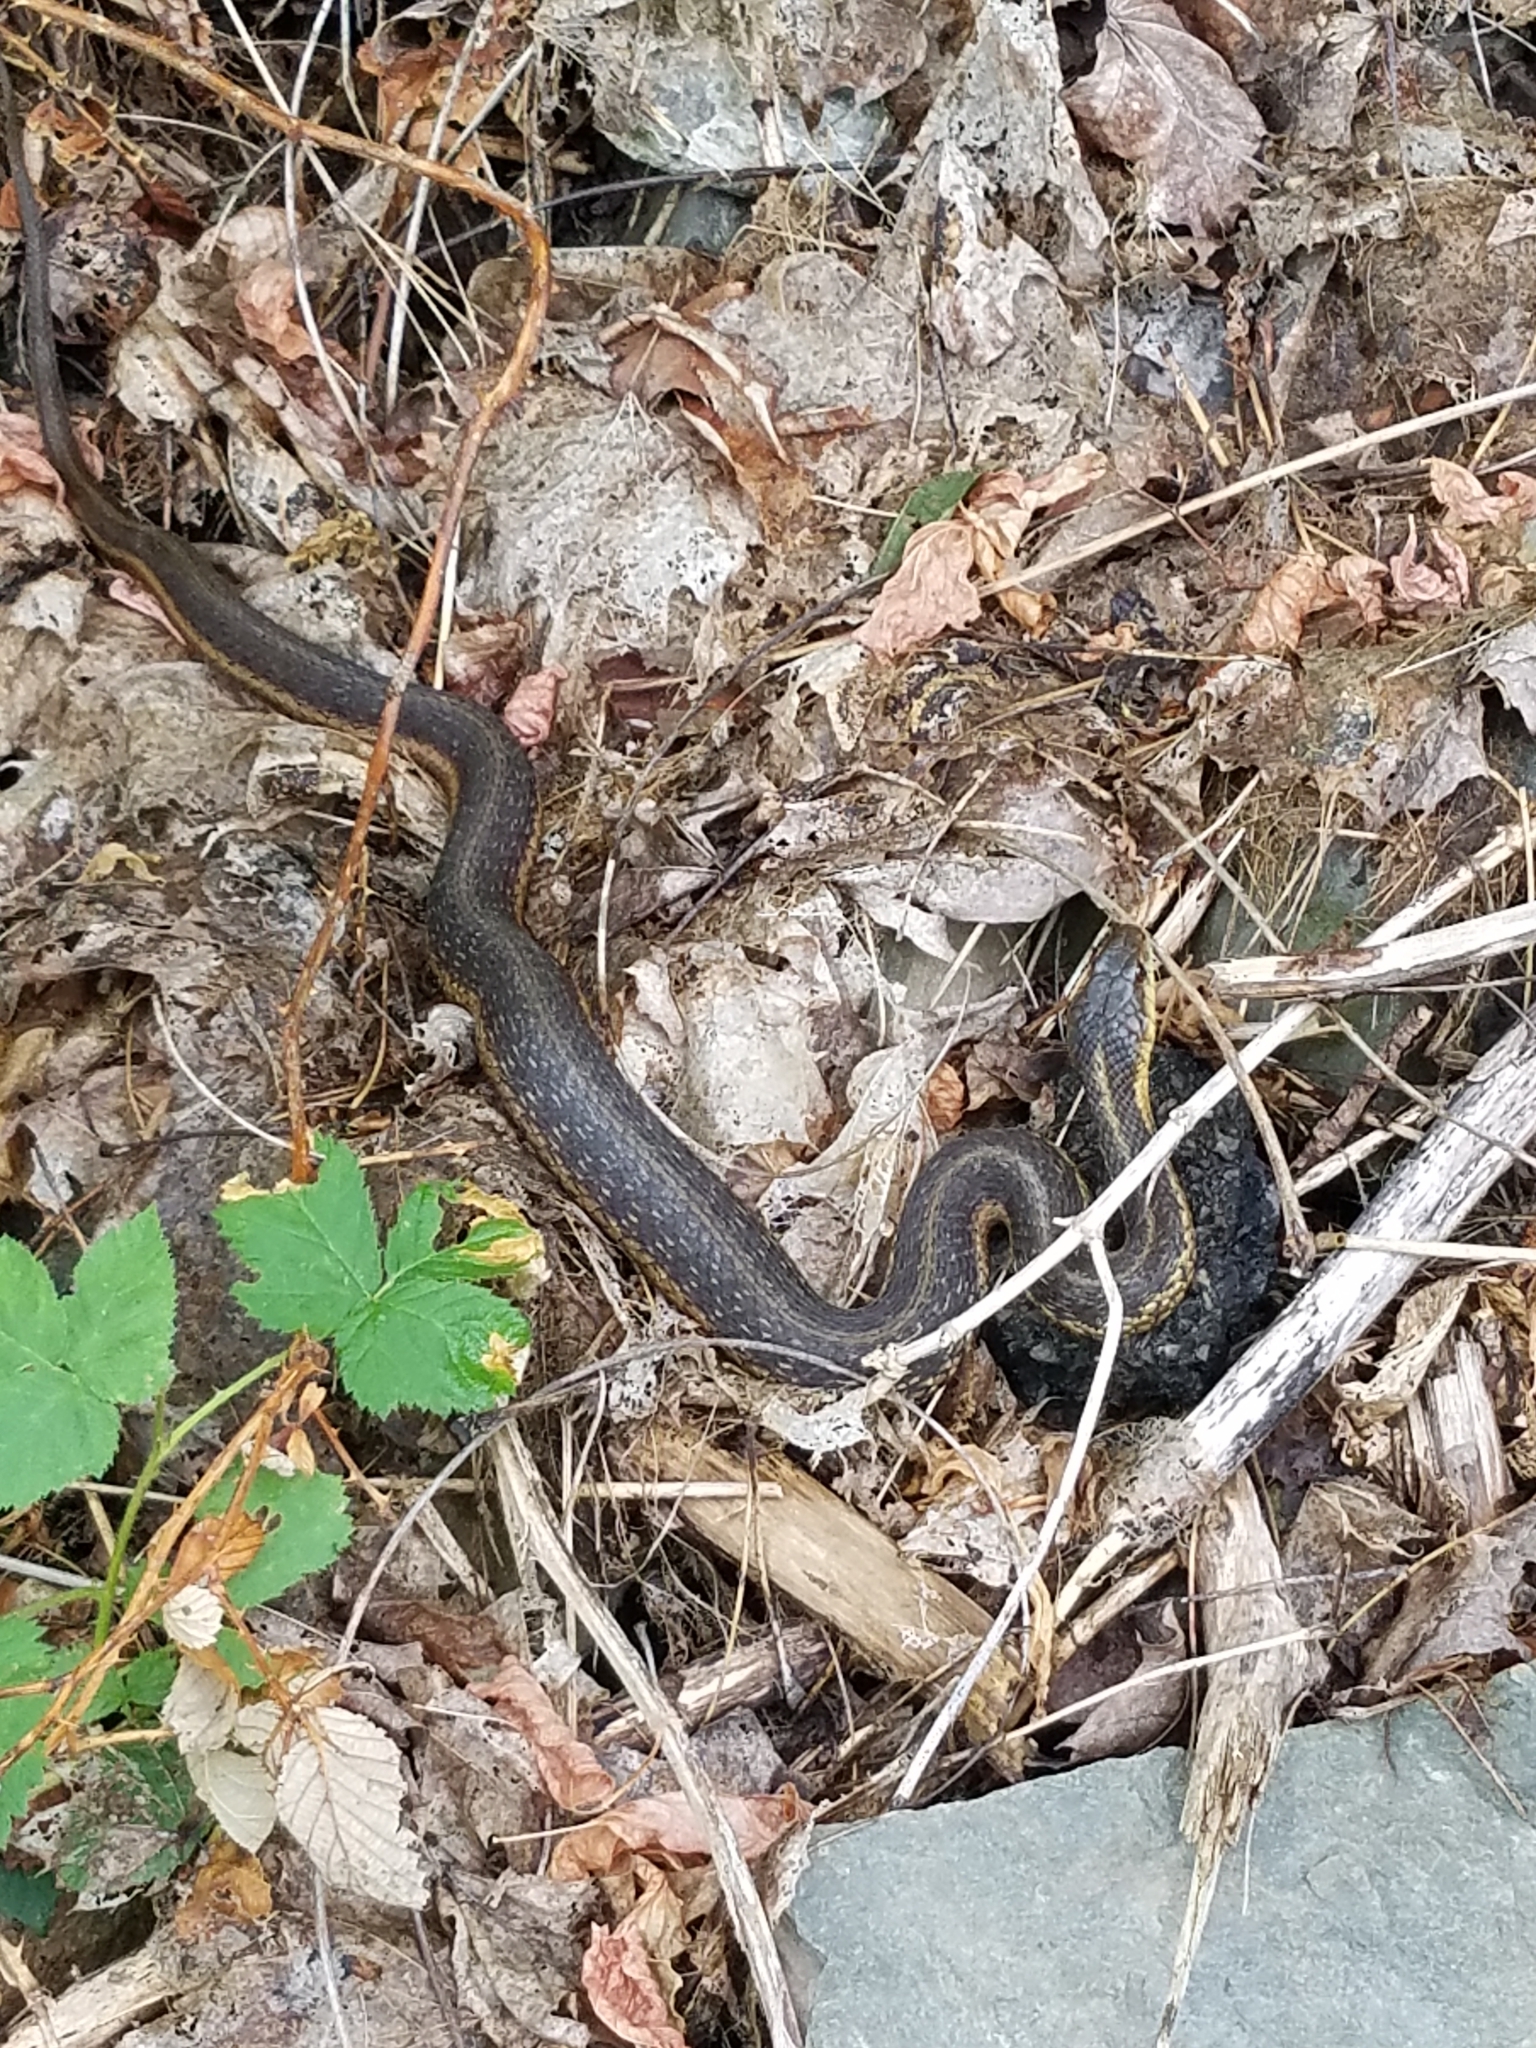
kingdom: Animalia
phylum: Chordata
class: Squamata
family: Colubridae
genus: Thamnophis
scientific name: Thamnophis sirtalis
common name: Common garter snake
